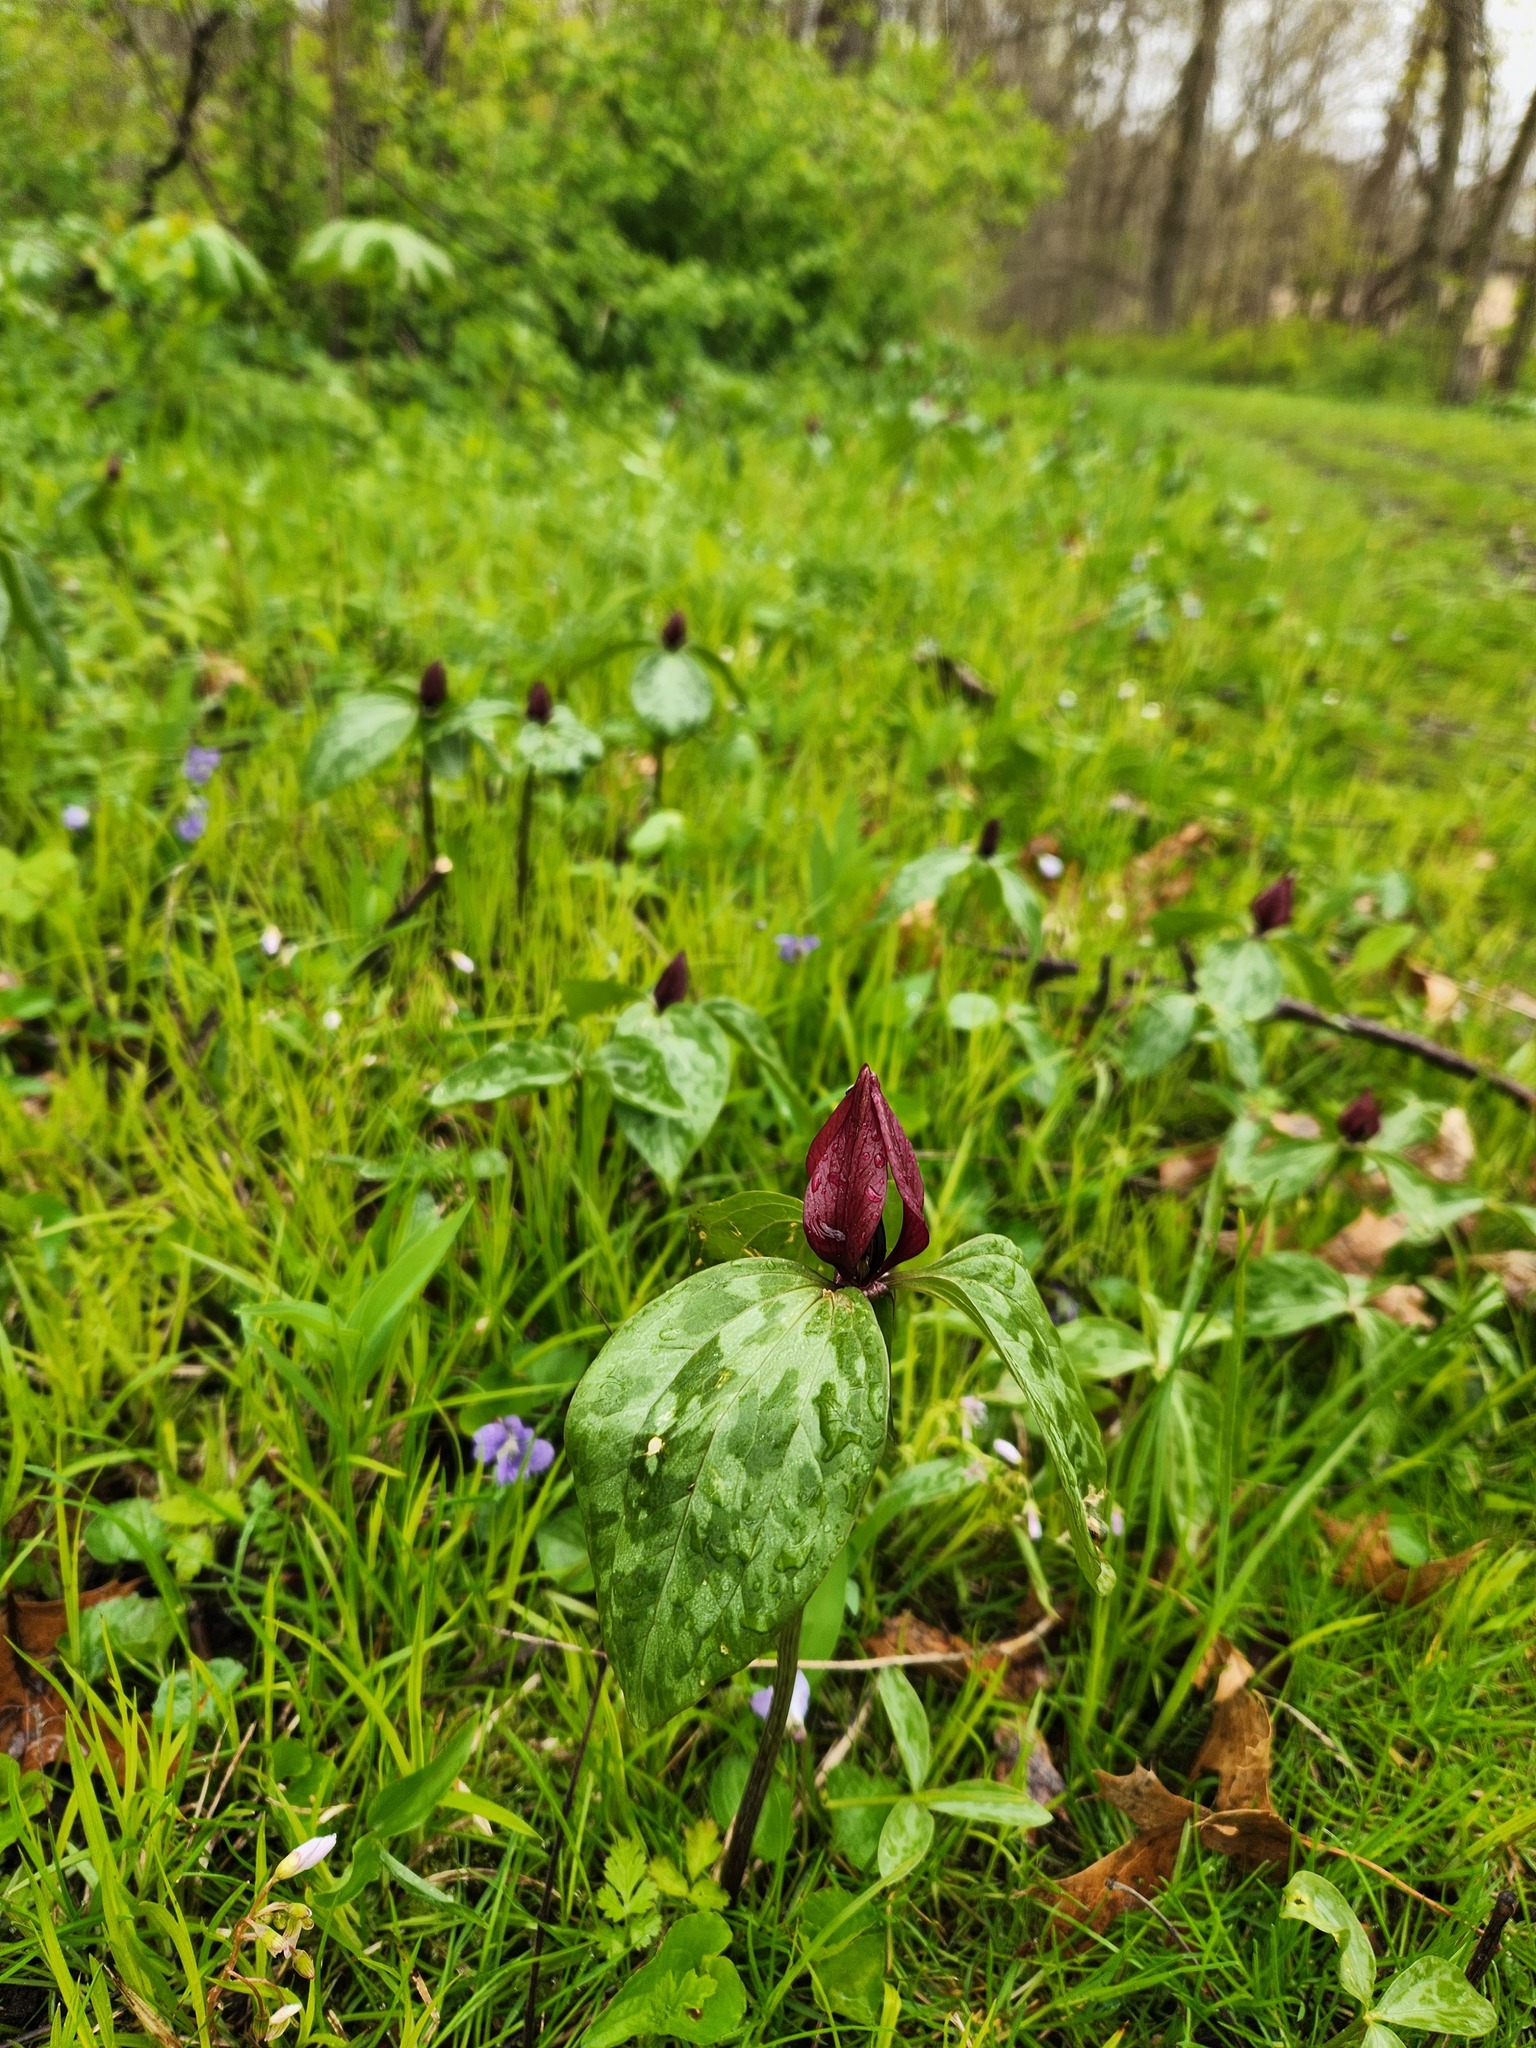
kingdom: Plantae
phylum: Tracheophyta
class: Liliopsida
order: Liliales
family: Melanthiaceae
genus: Trillium
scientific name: Trillium recurvatum
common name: Bloody butcher
